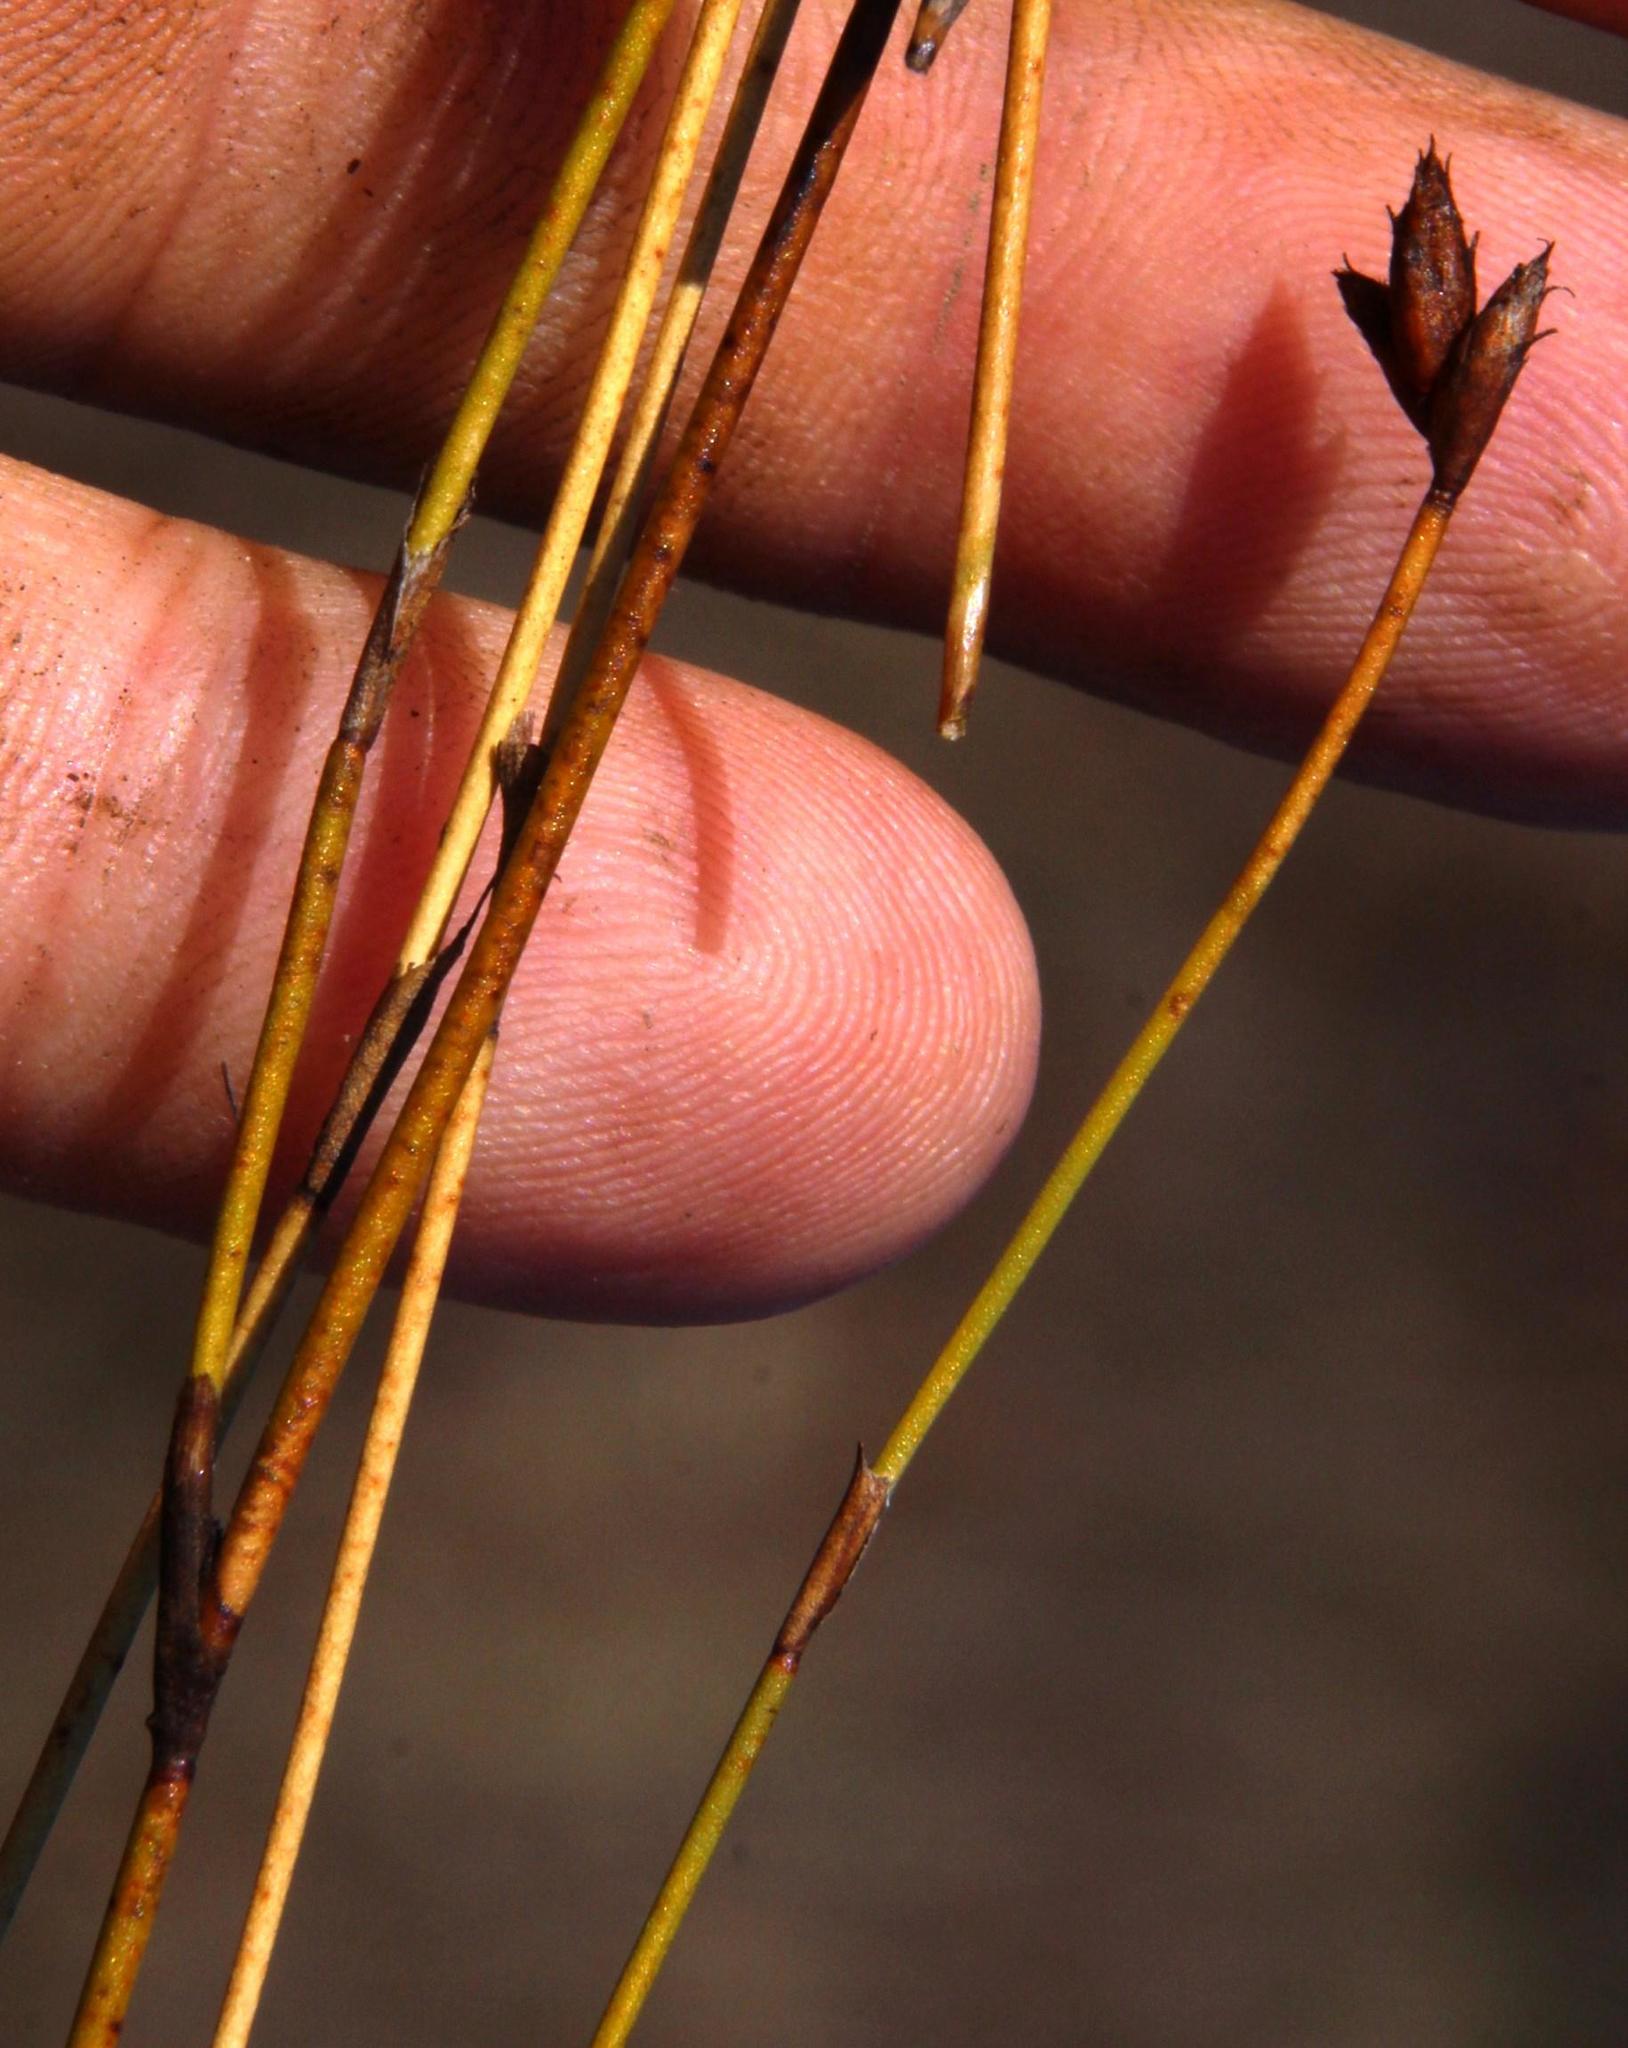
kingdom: Plantae
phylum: Tracheophyta
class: Liliopsida
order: Poales
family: Restionaceae
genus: Restio
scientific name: Restio capensis
